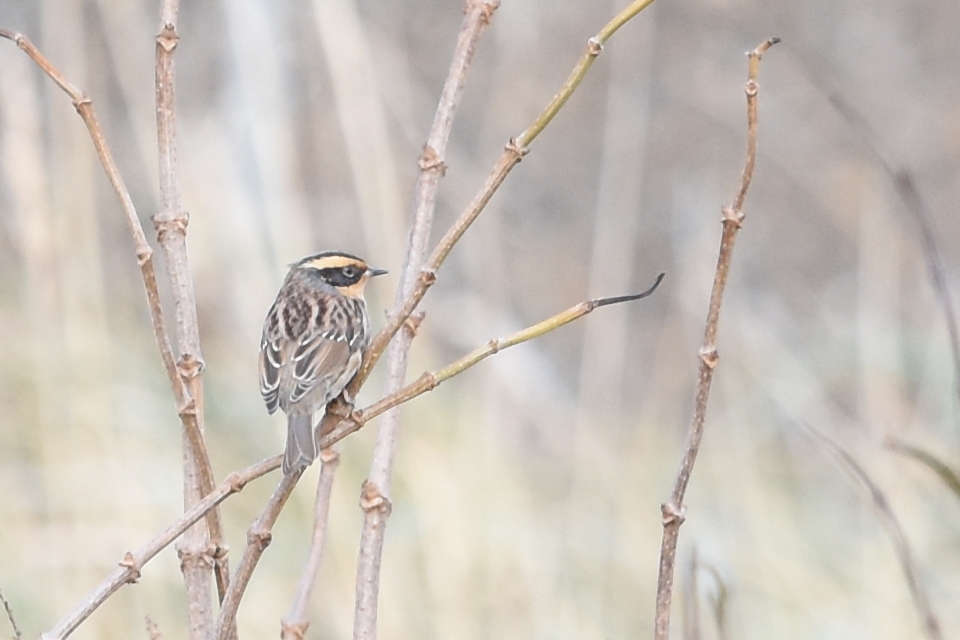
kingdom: Animalia
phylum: Chordata
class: Aves
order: Passeriformes
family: Prunellidae
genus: Prunella
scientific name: Prunella montanella
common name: Siberian accentor
